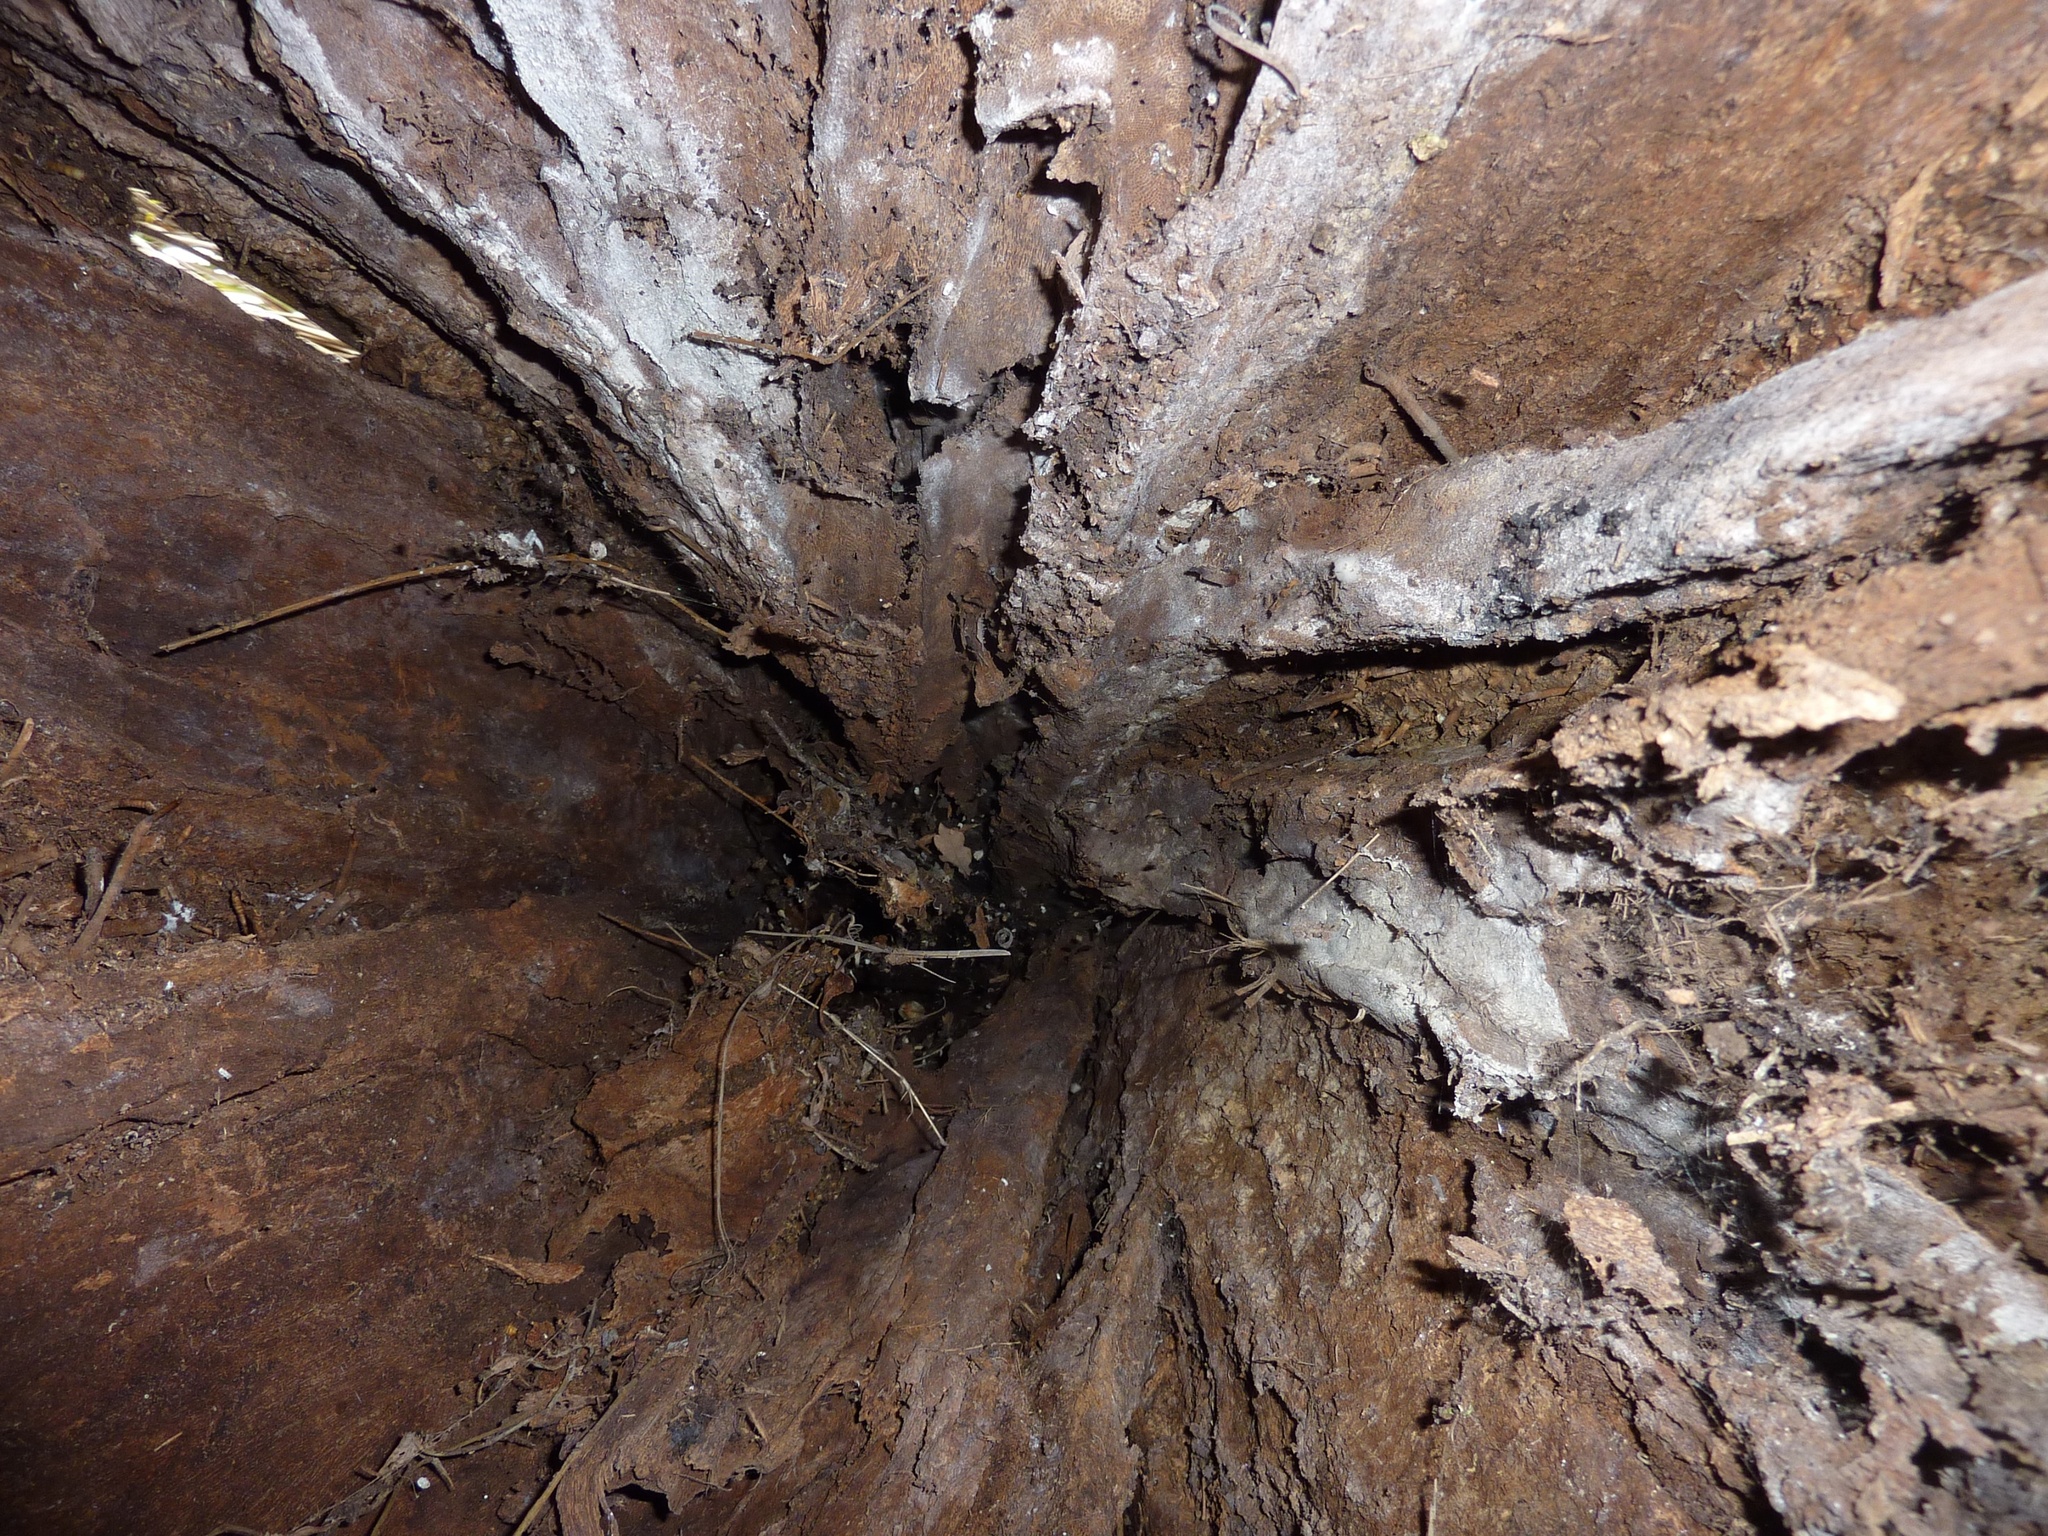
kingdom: Plantae
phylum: Tracheophyta
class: Liliopsida
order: Asparagales
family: Asparagaceae
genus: Cordyline
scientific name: Cordyline australis
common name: Cabbage-palm
